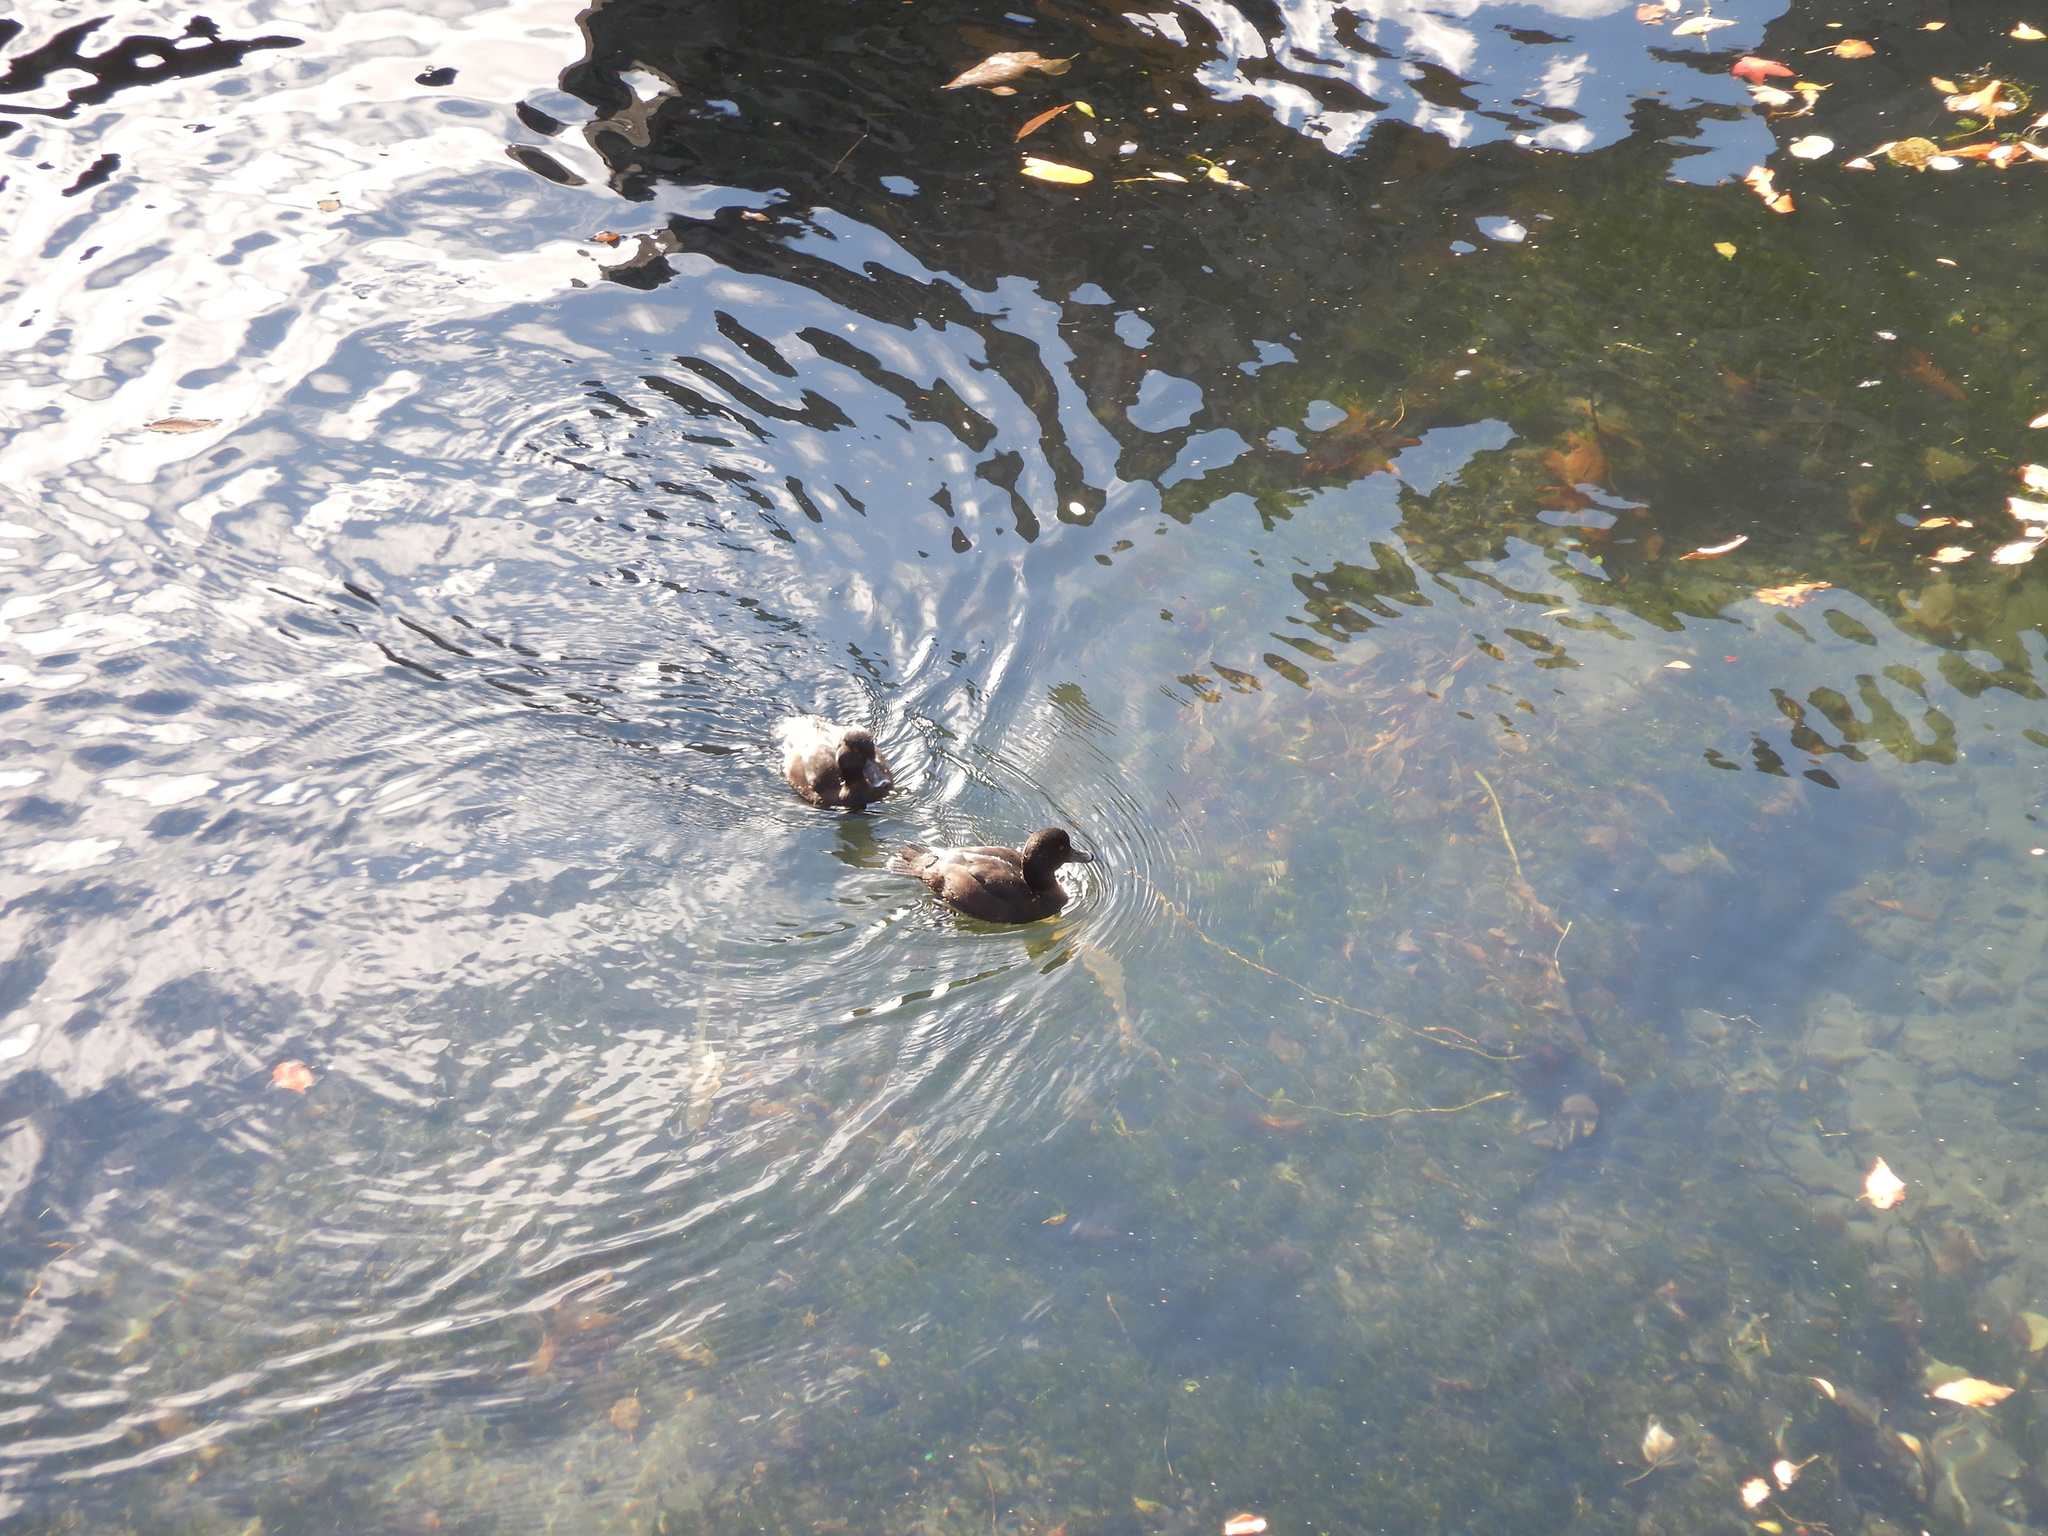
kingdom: Animalia
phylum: Chordata
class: Aves
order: Anseriformes
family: Anatidae
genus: Aythya
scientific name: Aythya novaeseelandiae
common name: New zealand scaup
